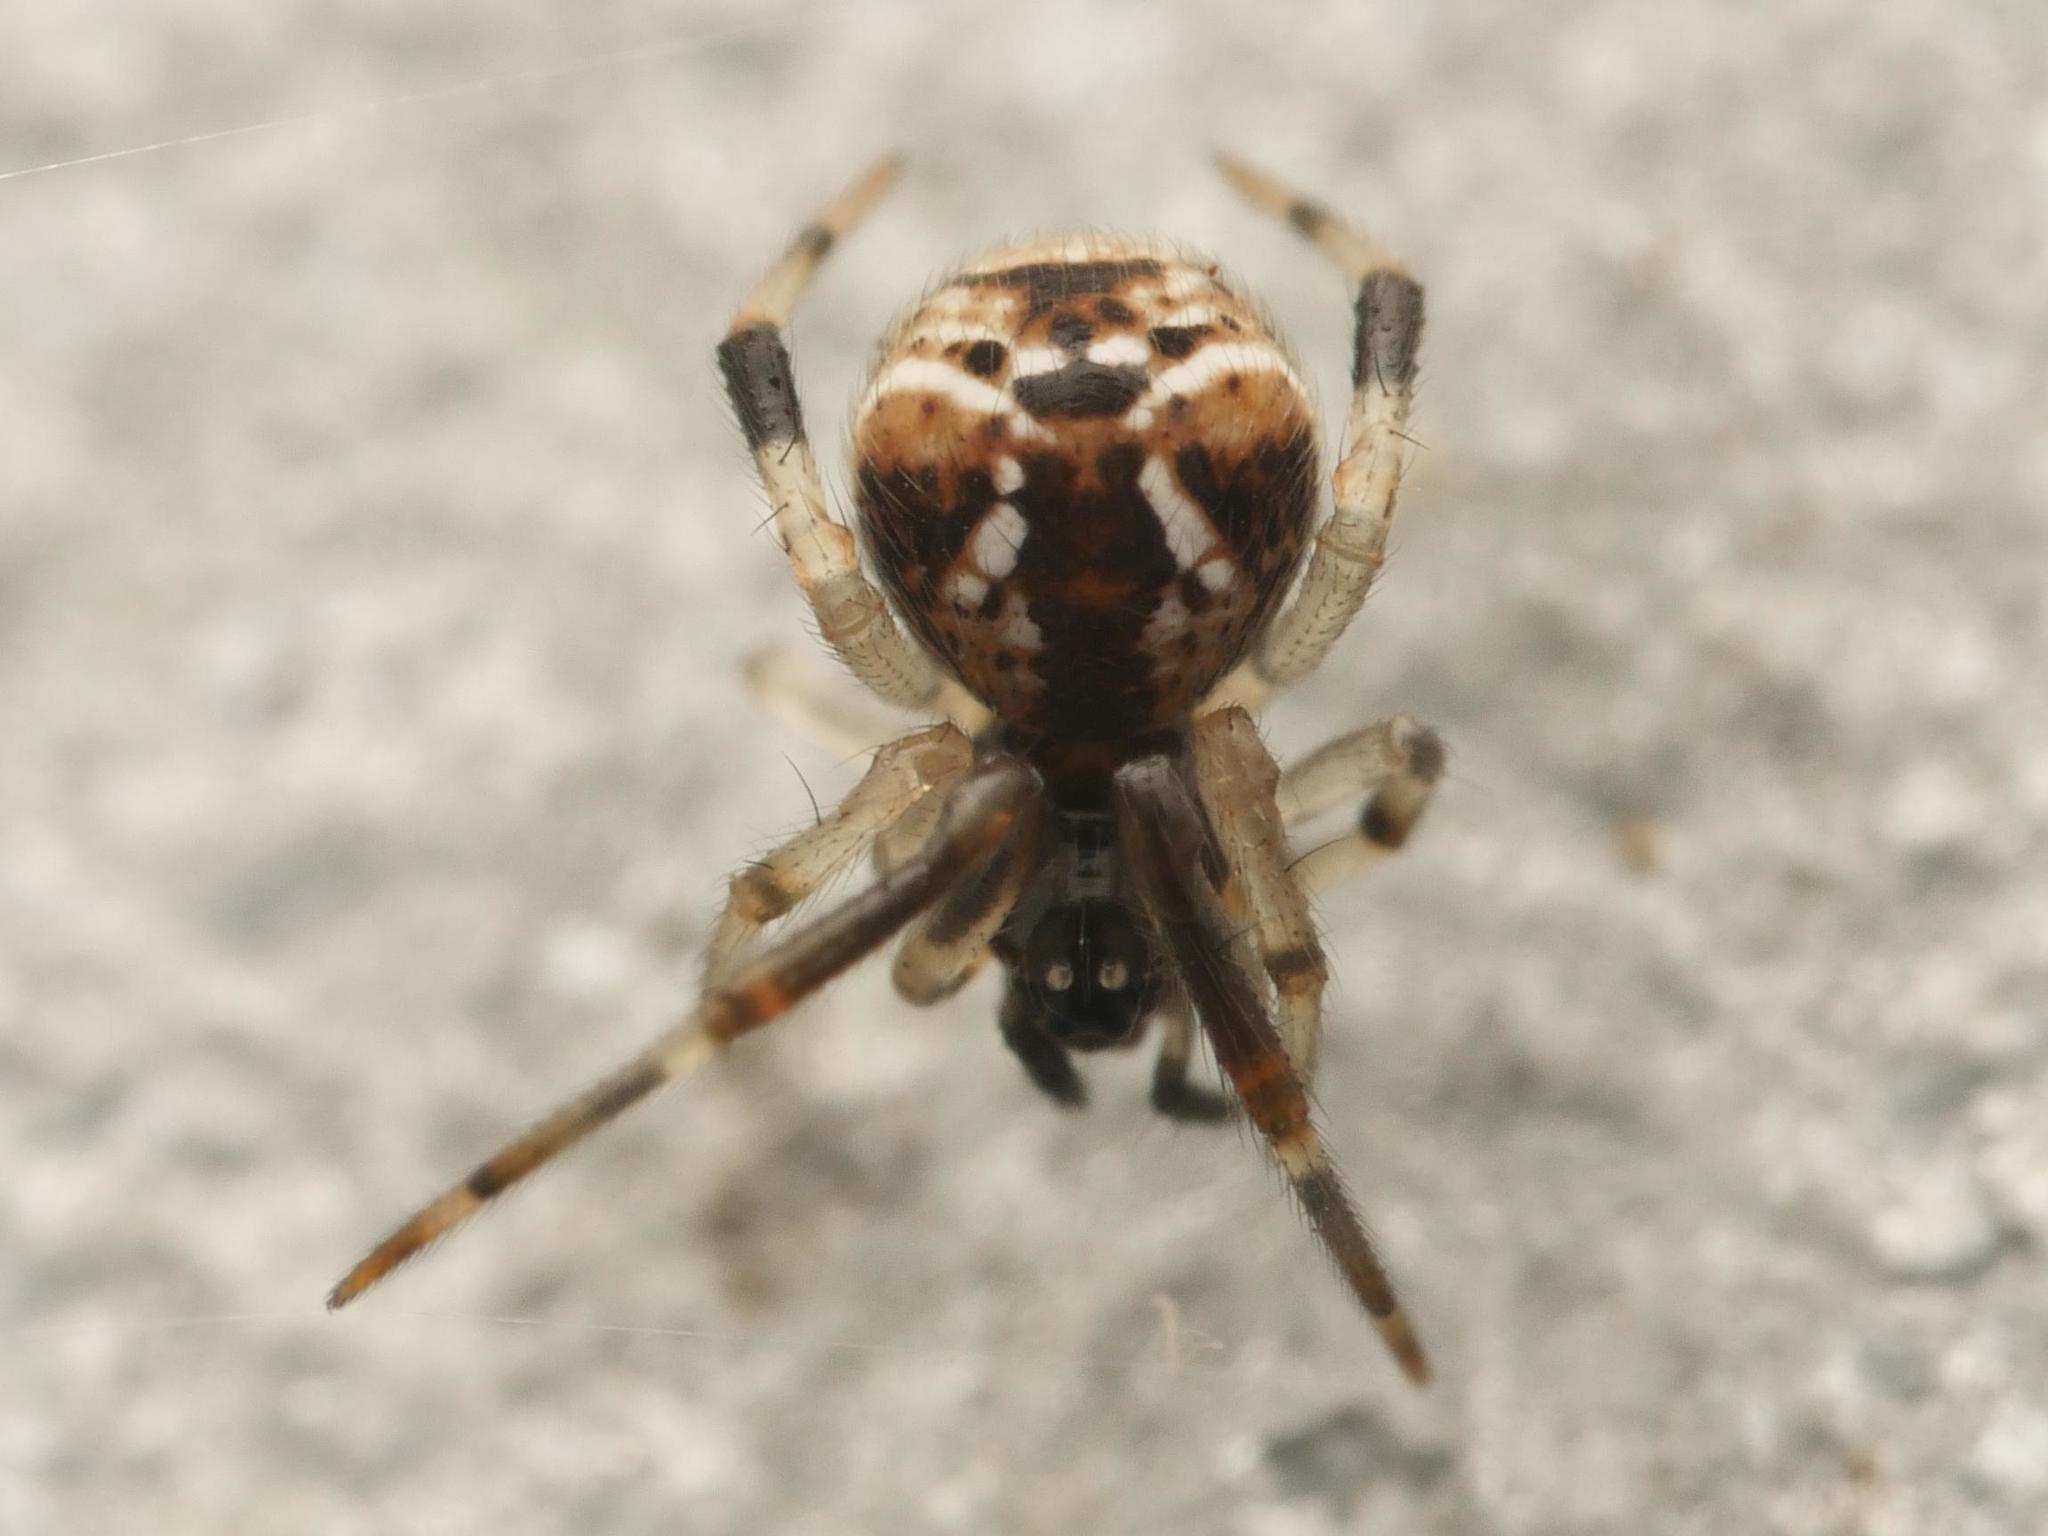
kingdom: Animalia
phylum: Arthropoda
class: Arachnida
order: Araneae
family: Theridiidae
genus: Parasteatoda
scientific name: Parasteatoda lunata
